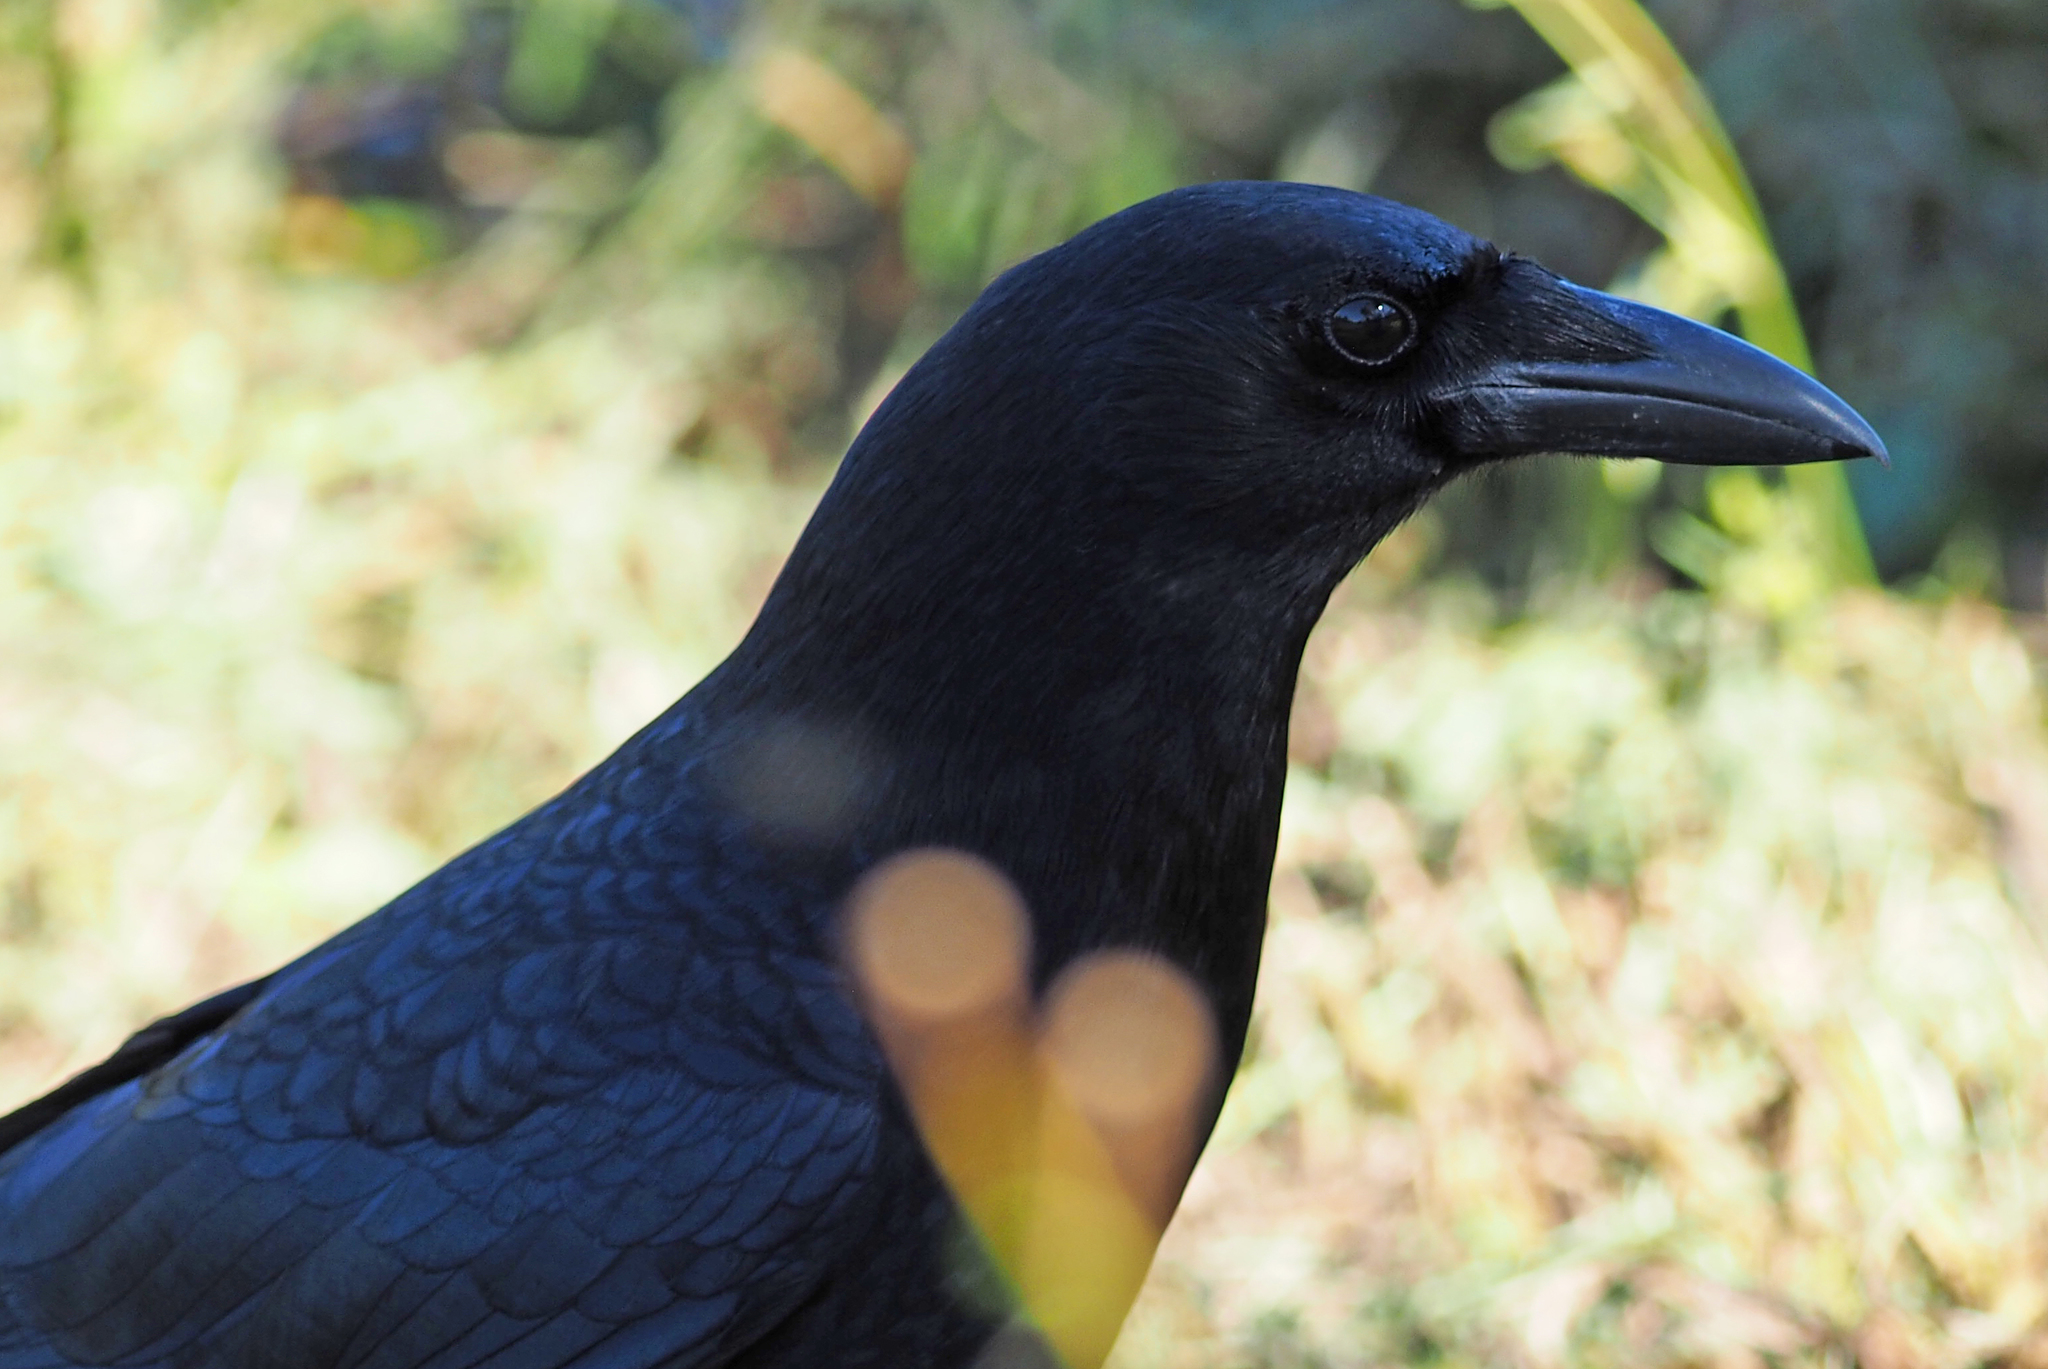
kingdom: Animalia
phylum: Chordata
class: Aves
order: Passeriformes
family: Corvidae
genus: Corvus
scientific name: Corvus brachyrhynchos
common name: American crow
